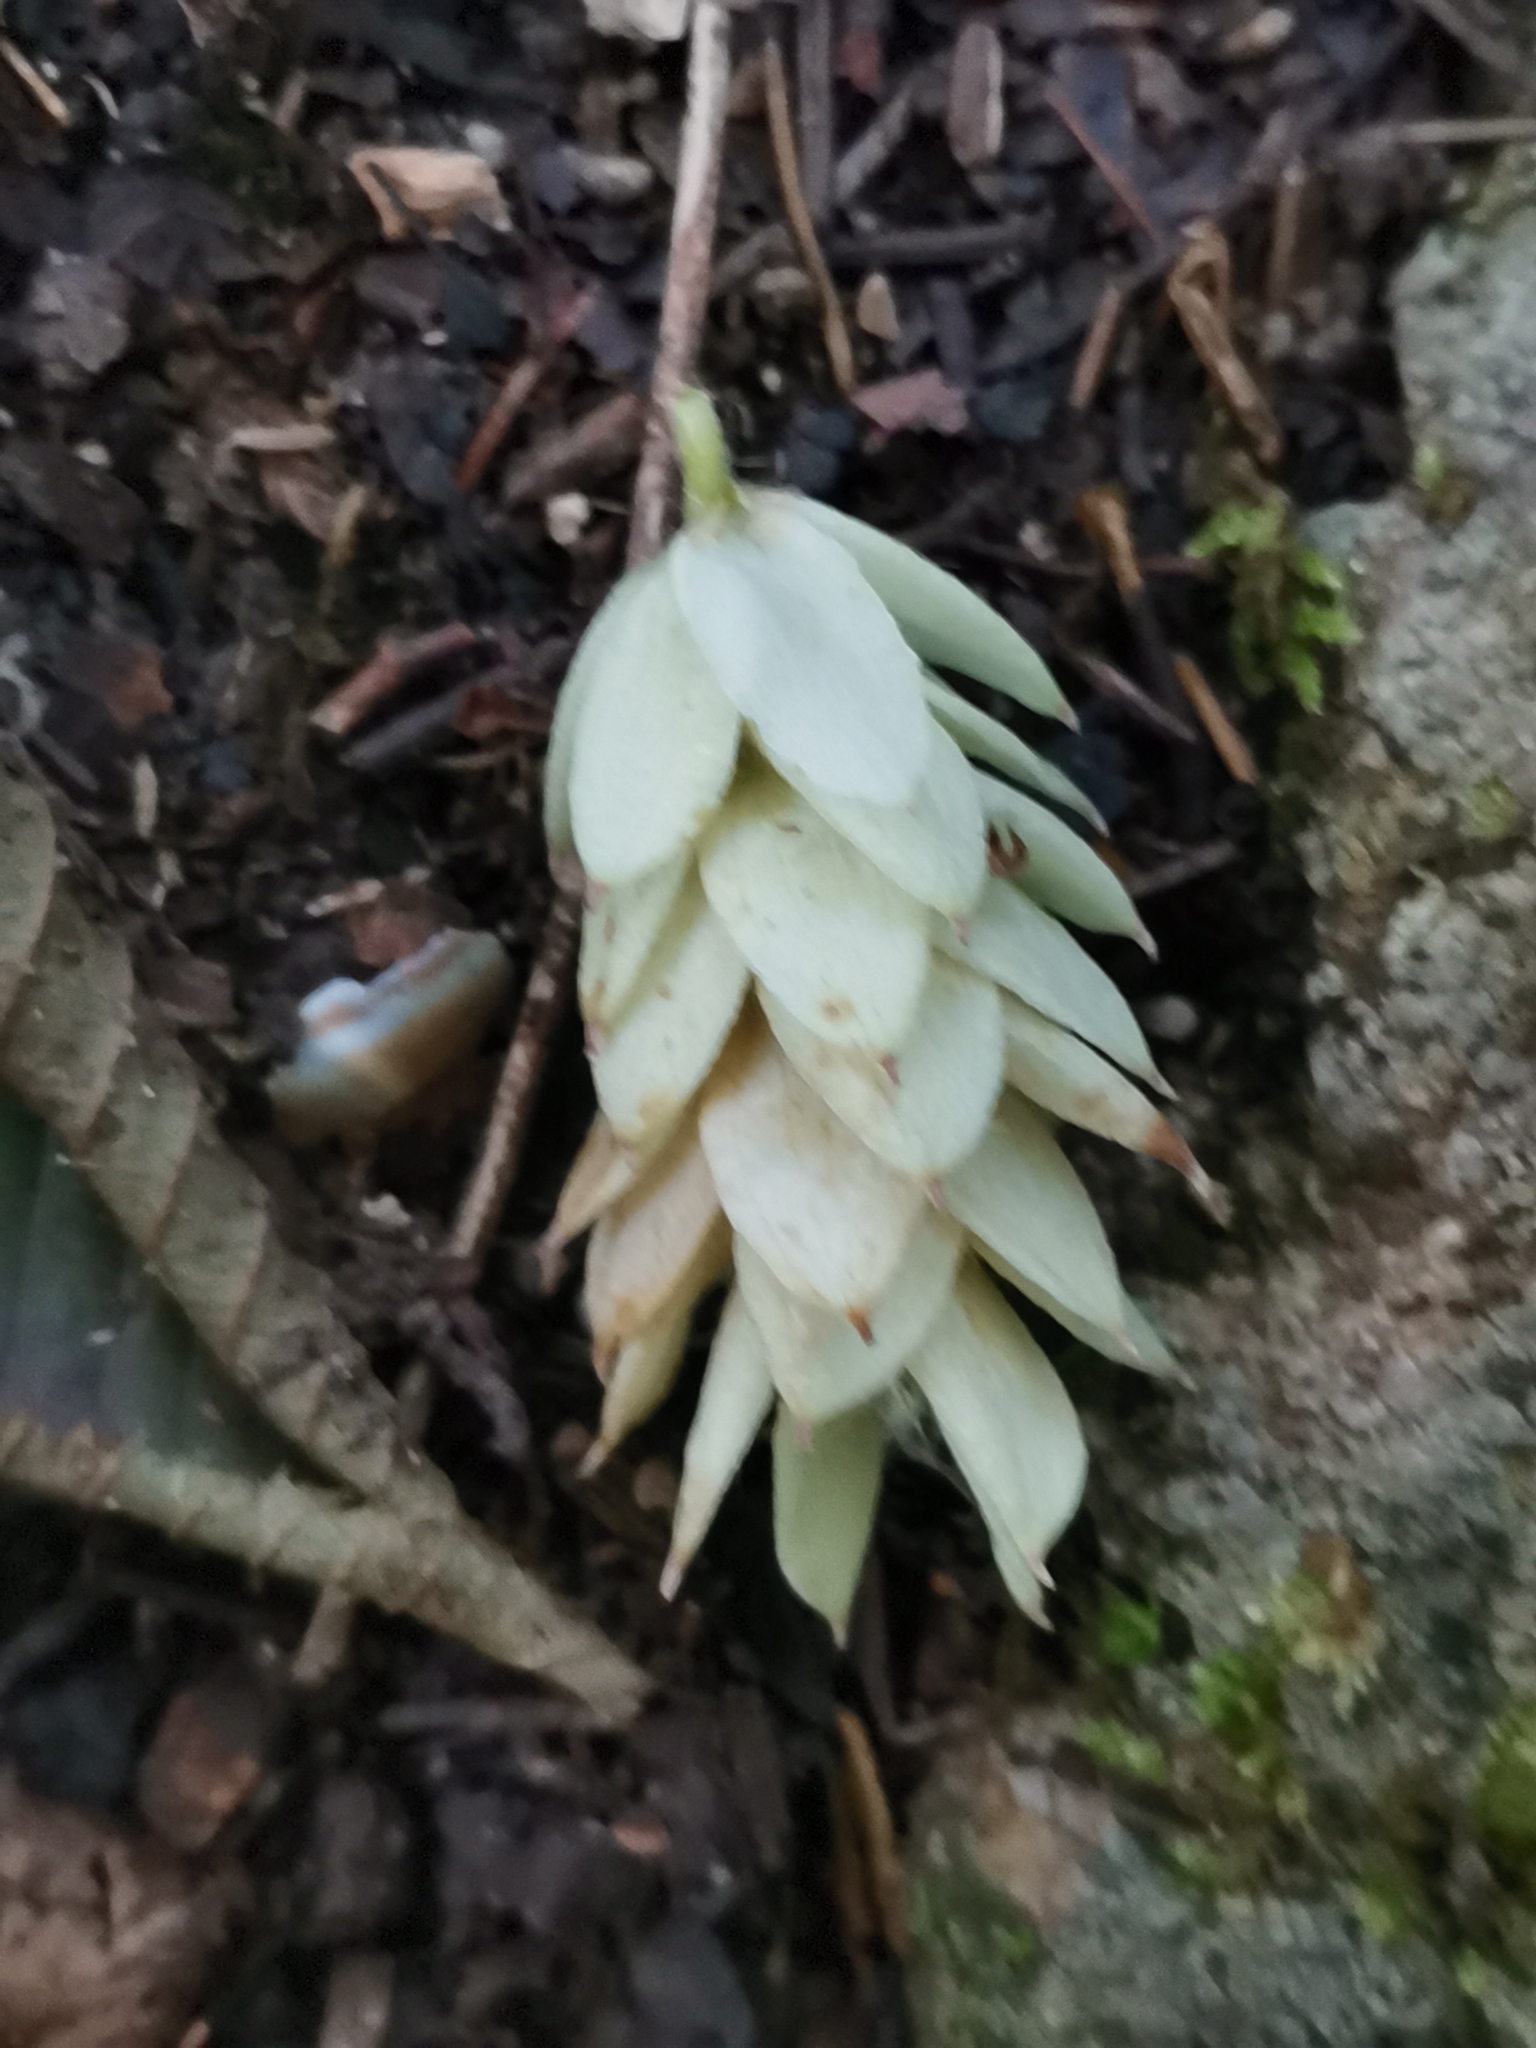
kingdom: Plantae
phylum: Tracheophyta
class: Magnoliopsida
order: Fagales
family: Betulaceae
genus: Ostrya
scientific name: Ostrya carpinifolia
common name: European hop-hornbeam
